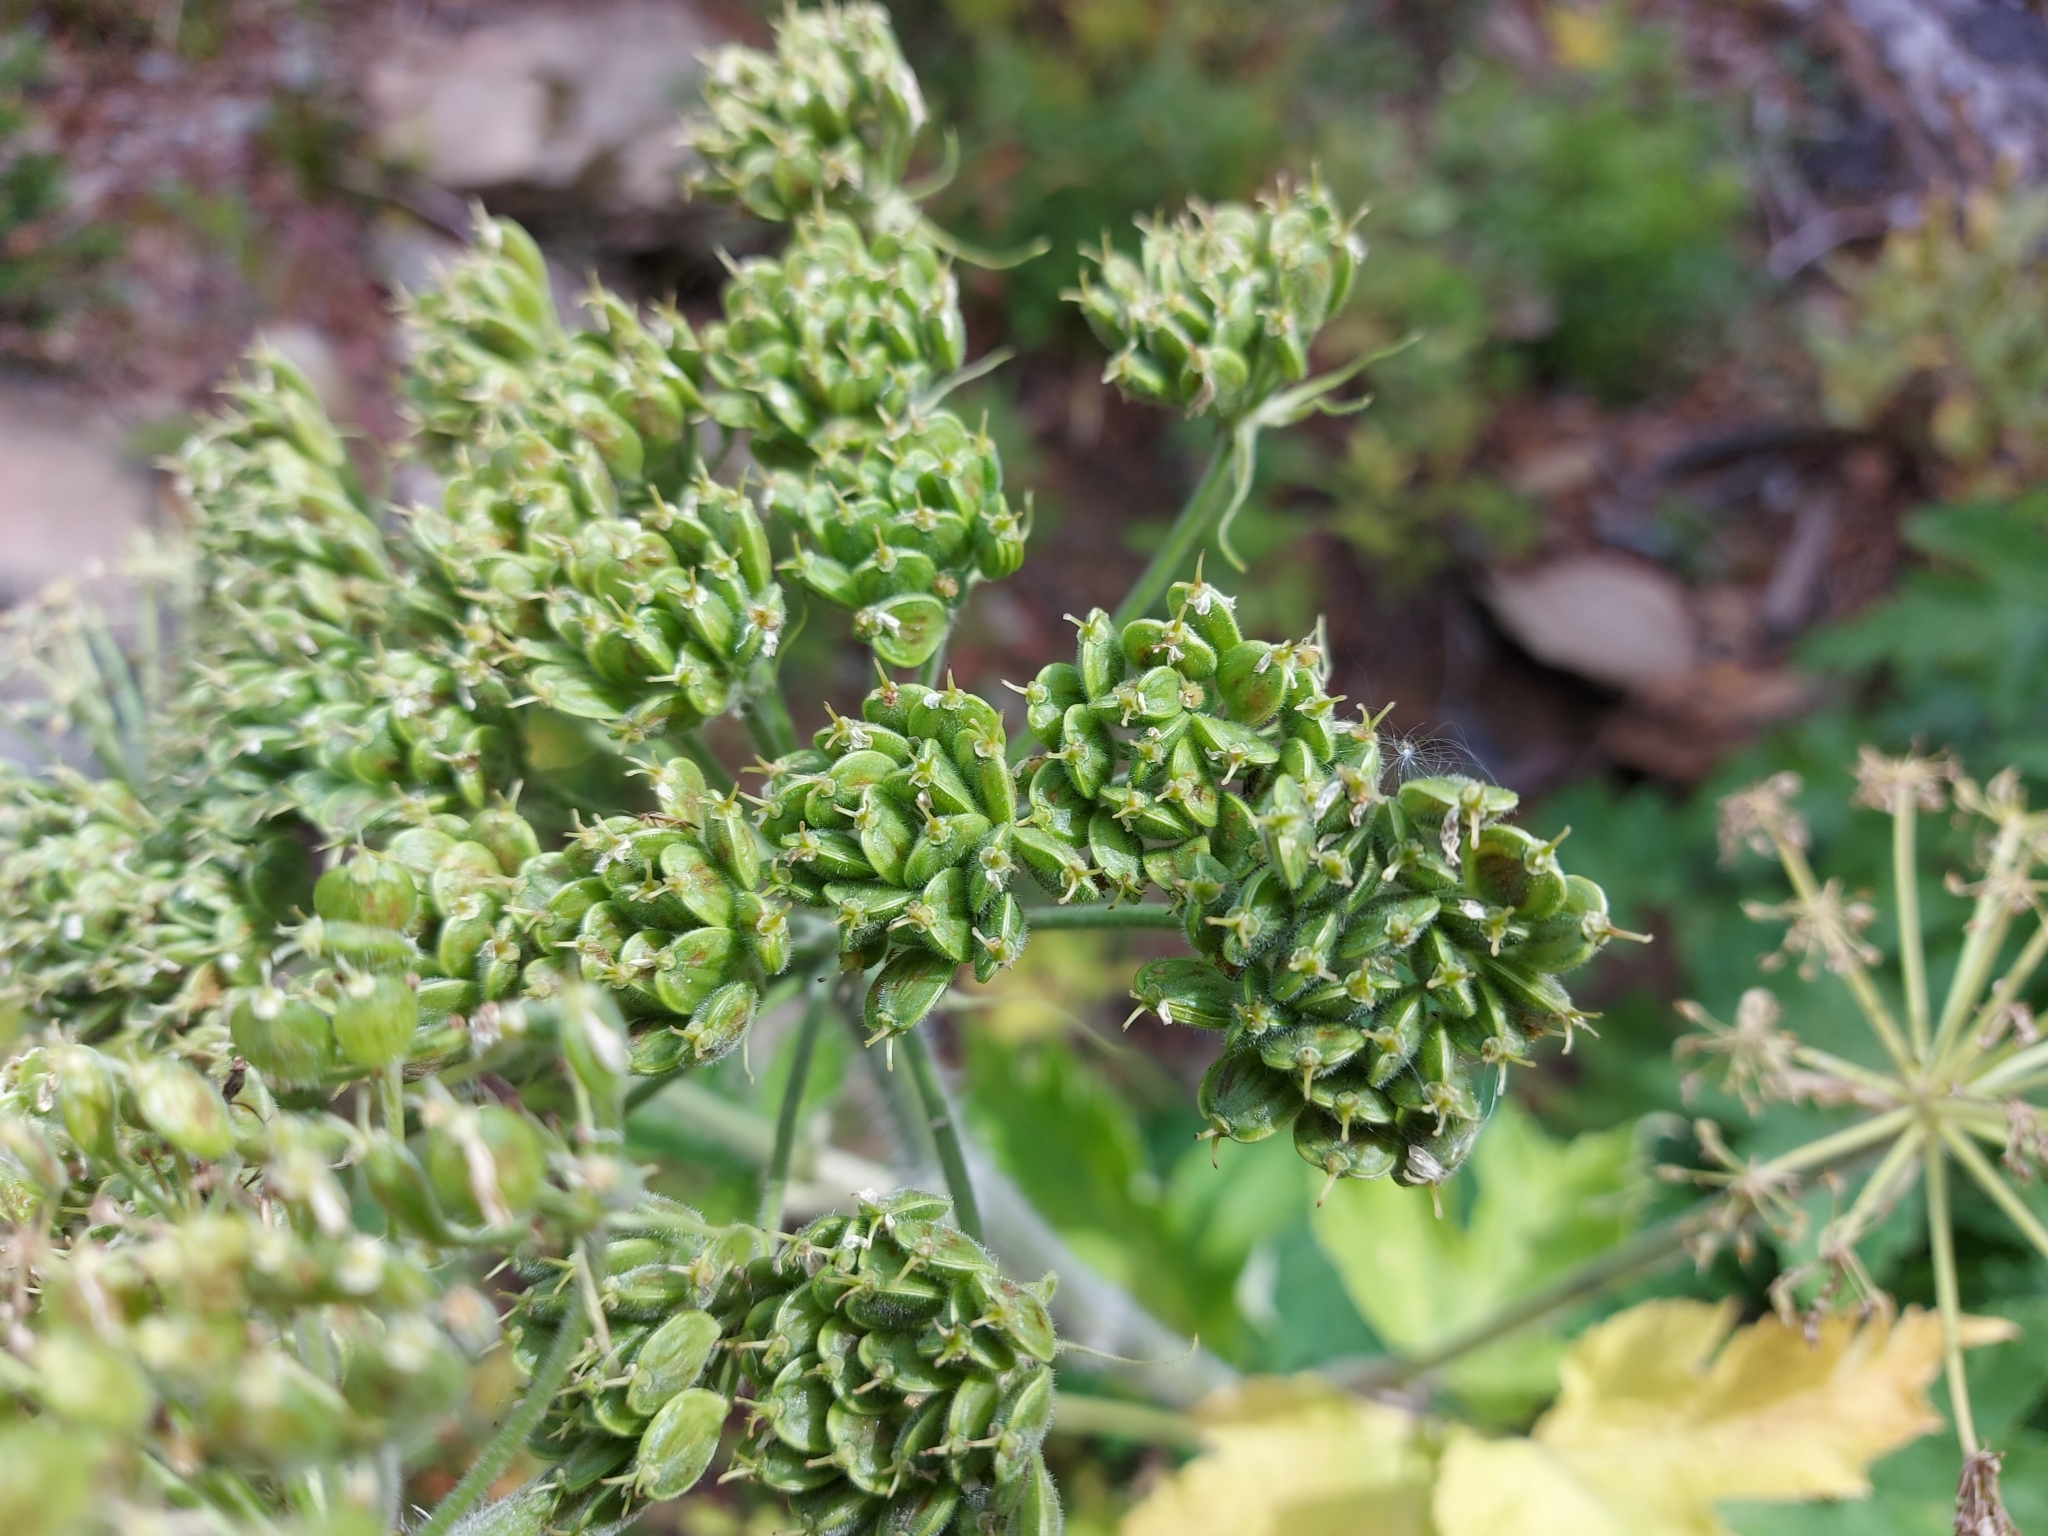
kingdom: Plantae
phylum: Tracheophyta
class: Magnoliopsida
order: Apiales
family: Apiaceae
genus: Heracleum
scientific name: Heracleum maximum
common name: American cow parsnip
